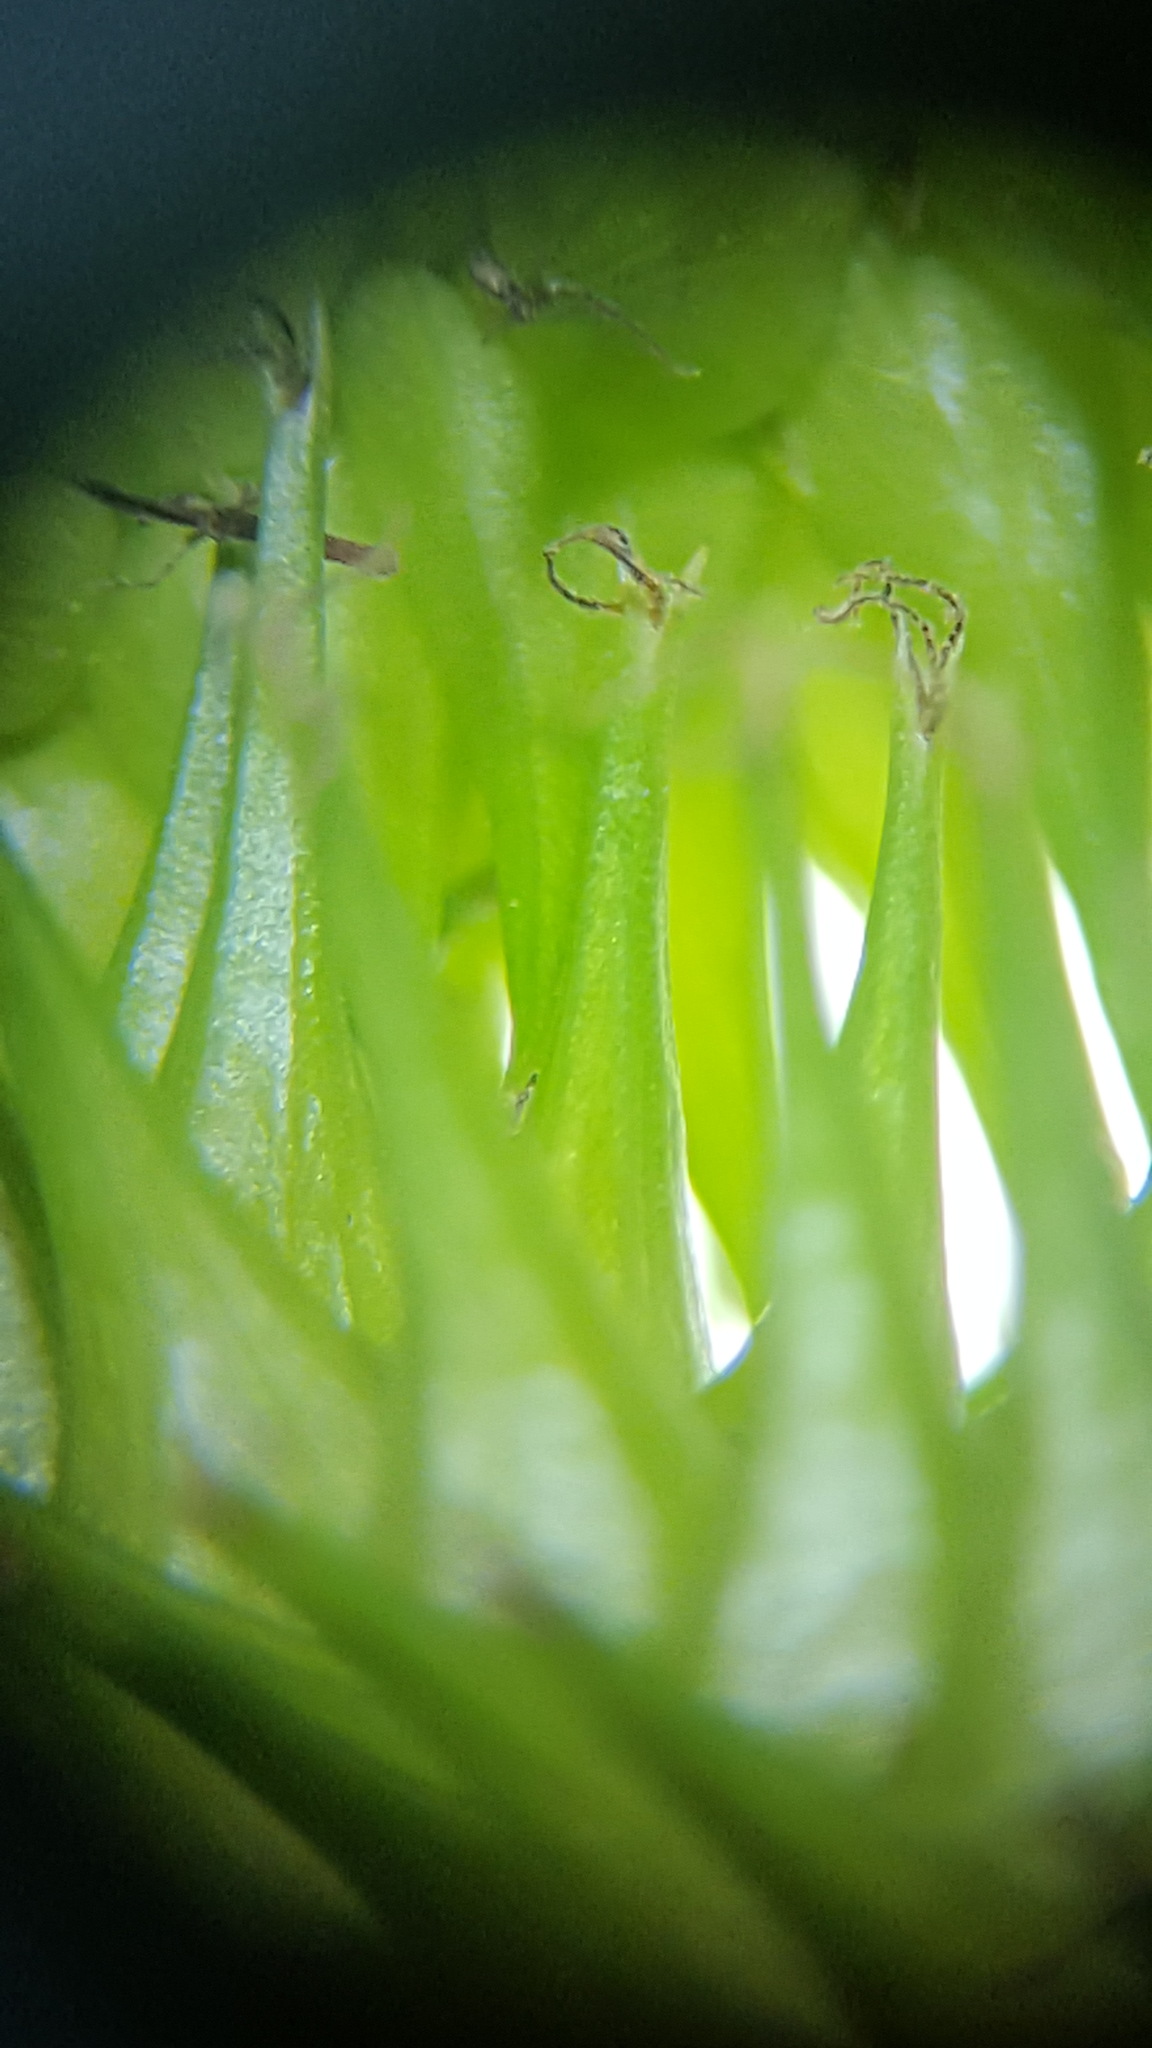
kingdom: Plantae
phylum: Tracheophyta
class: Liliopsida
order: Poales
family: Cyperaceae
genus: Carex
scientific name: Carex retrorsa
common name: Knot-sheath sedge
